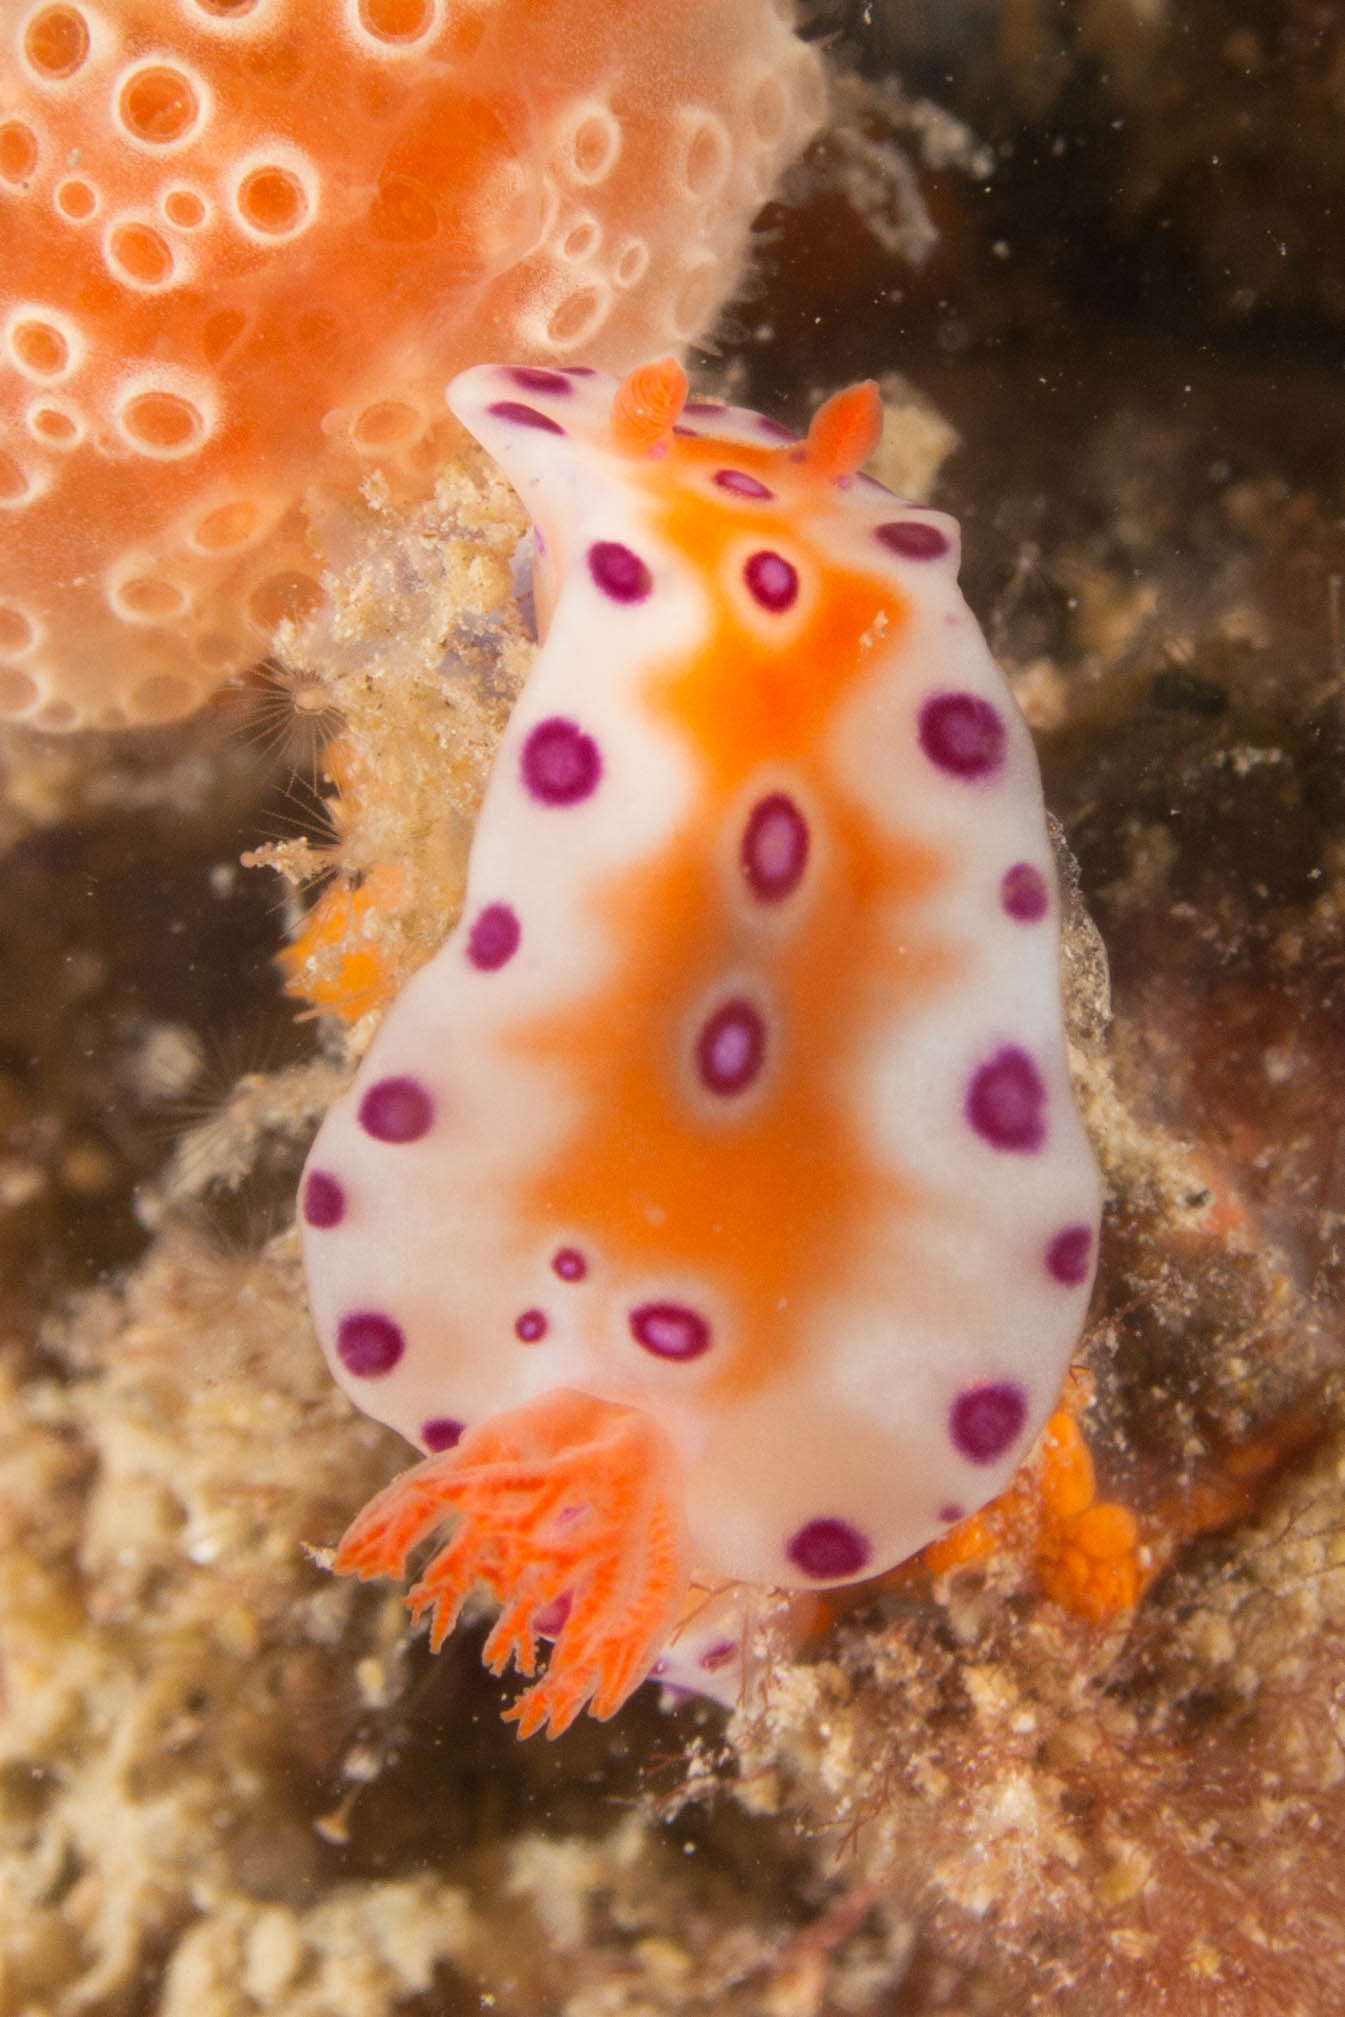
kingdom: Animalia
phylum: Mollusca
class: Gastropoda
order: Nudibranchia
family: Chromodorididae
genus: Ceratosoma
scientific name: Ceratosoma brevicaudatum
